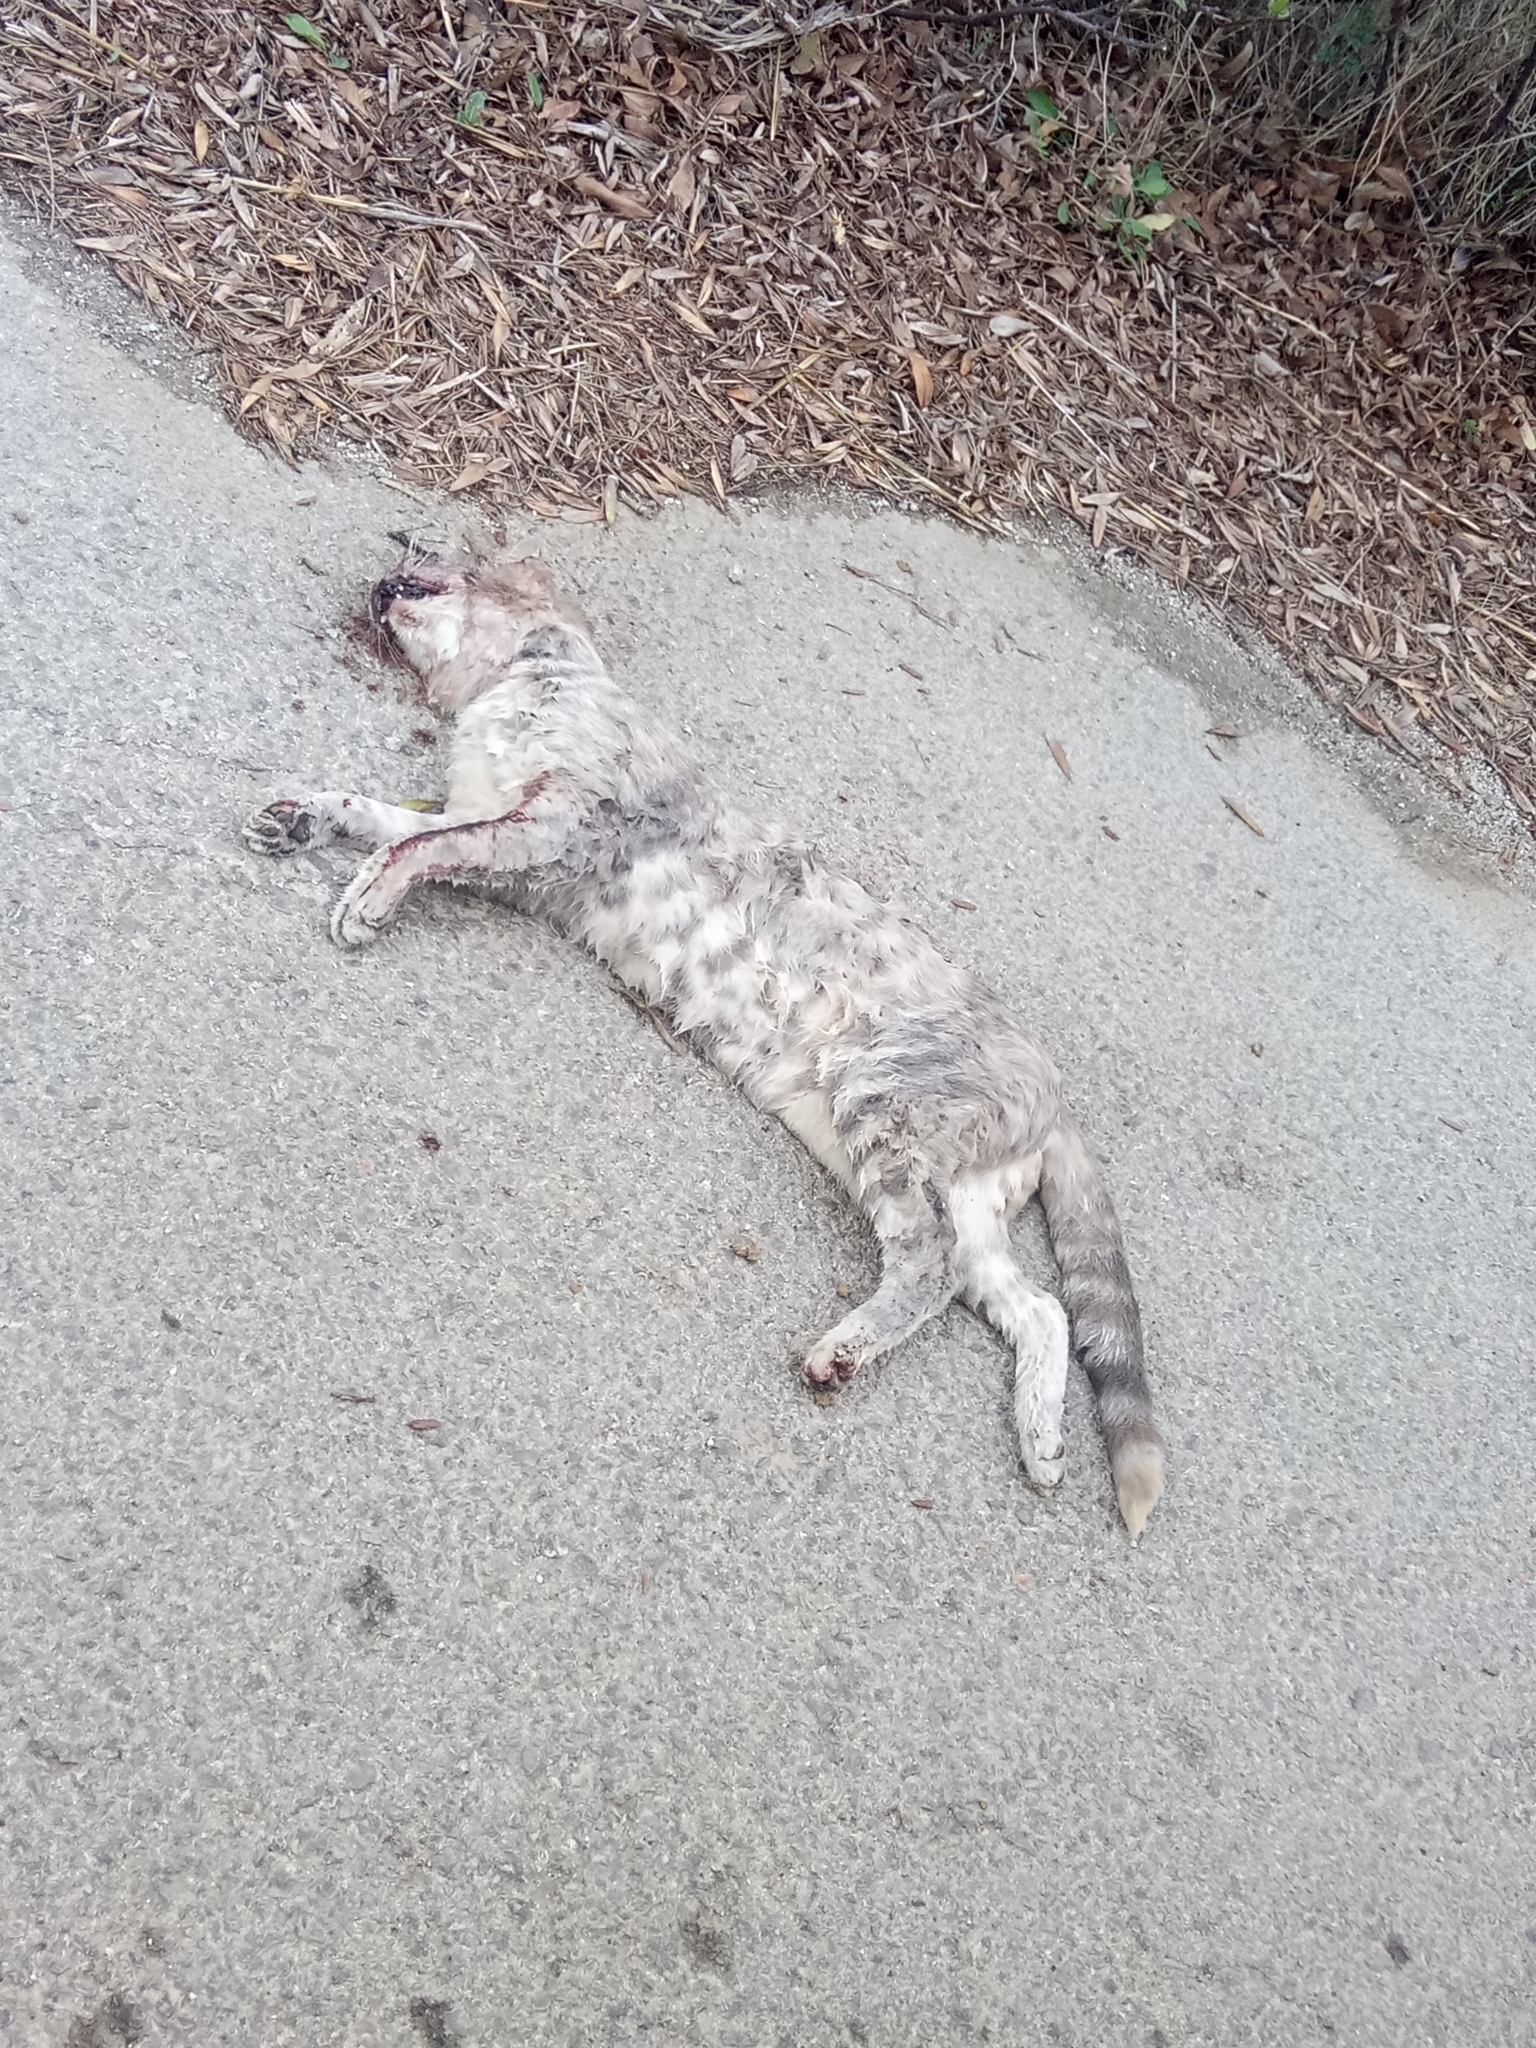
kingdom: Animalia
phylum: Chordata
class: Mammalia
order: Carnivora
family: Felidae
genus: Felis
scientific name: Felis catus
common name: Domestic cat
